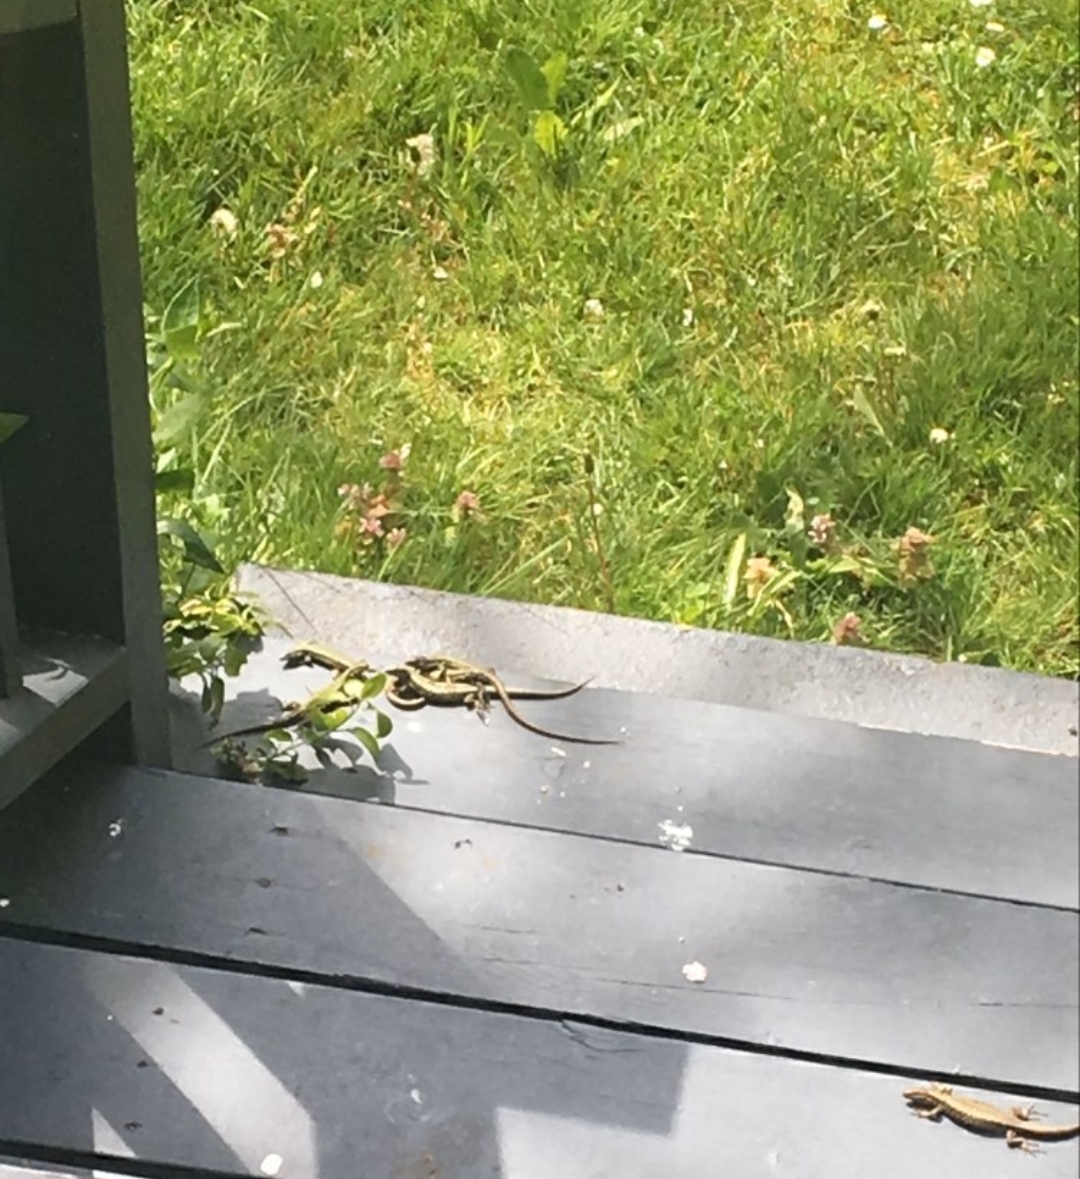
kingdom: Animalia
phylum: Chordata
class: Squamata
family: Lacertidae
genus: Podarcis
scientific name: Podarcis muralis
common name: Common wall lizard
